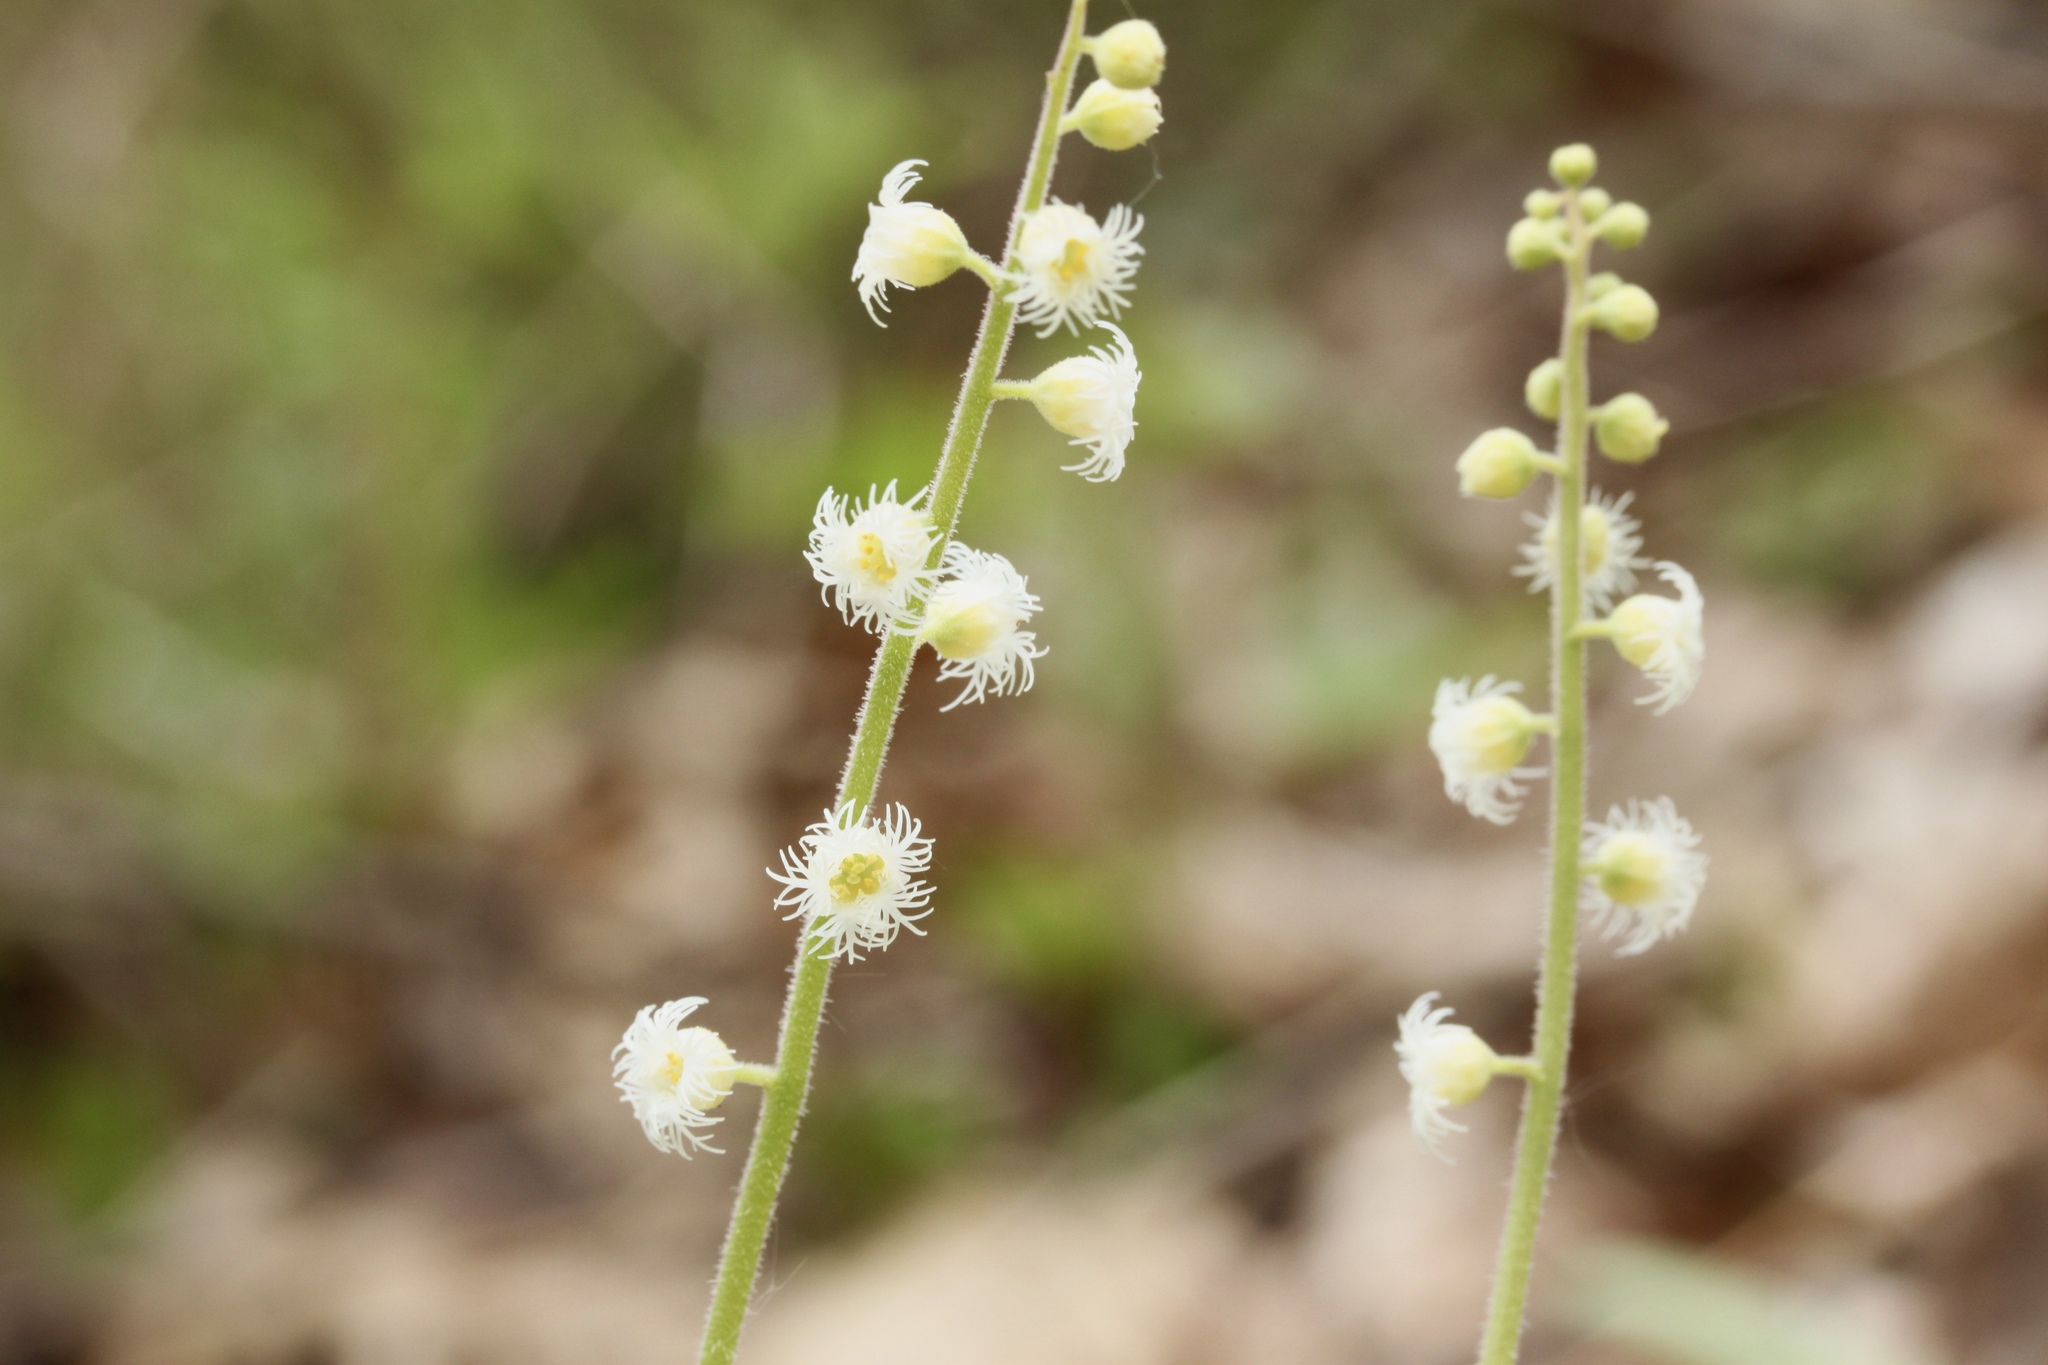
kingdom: Plantae
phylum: Tracheophyta
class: Magnoliopsida
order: Saxifragales
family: Saxifragaceae
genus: Mitella
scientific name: Mitella diphylla
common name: Coolwort
